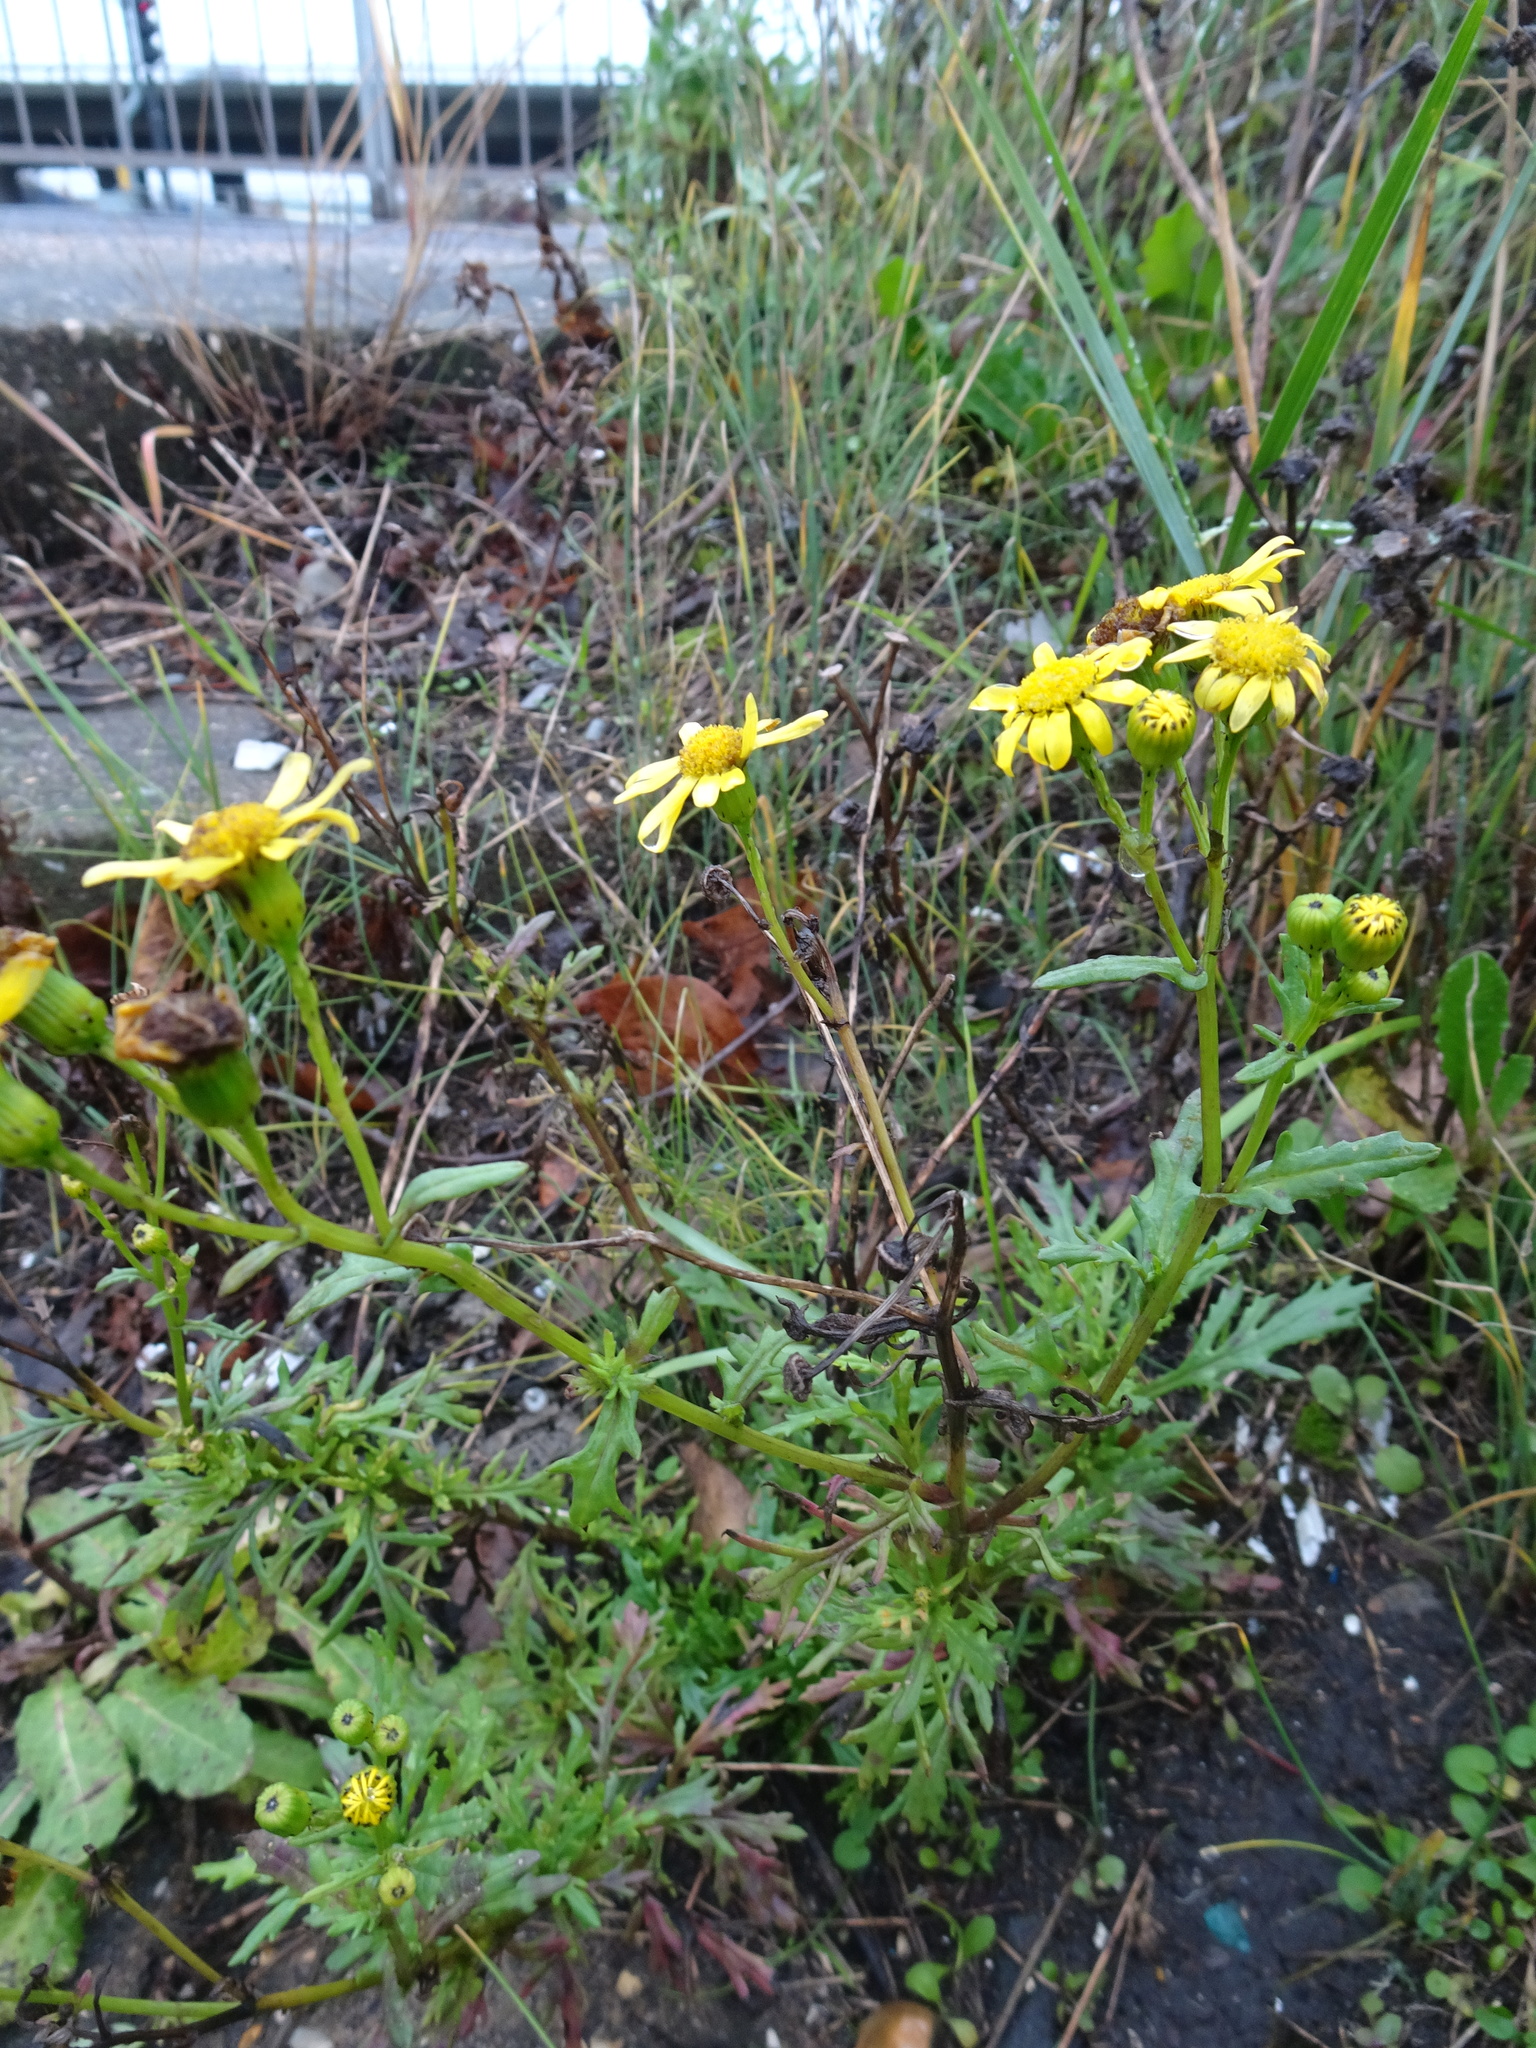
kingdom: Plantae
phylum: Tracheophyta
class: Magnoliopsida
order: Asterales
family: Asteraceae
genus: Senecio
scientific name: Senecio squalidus
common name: Oxford ragwort
